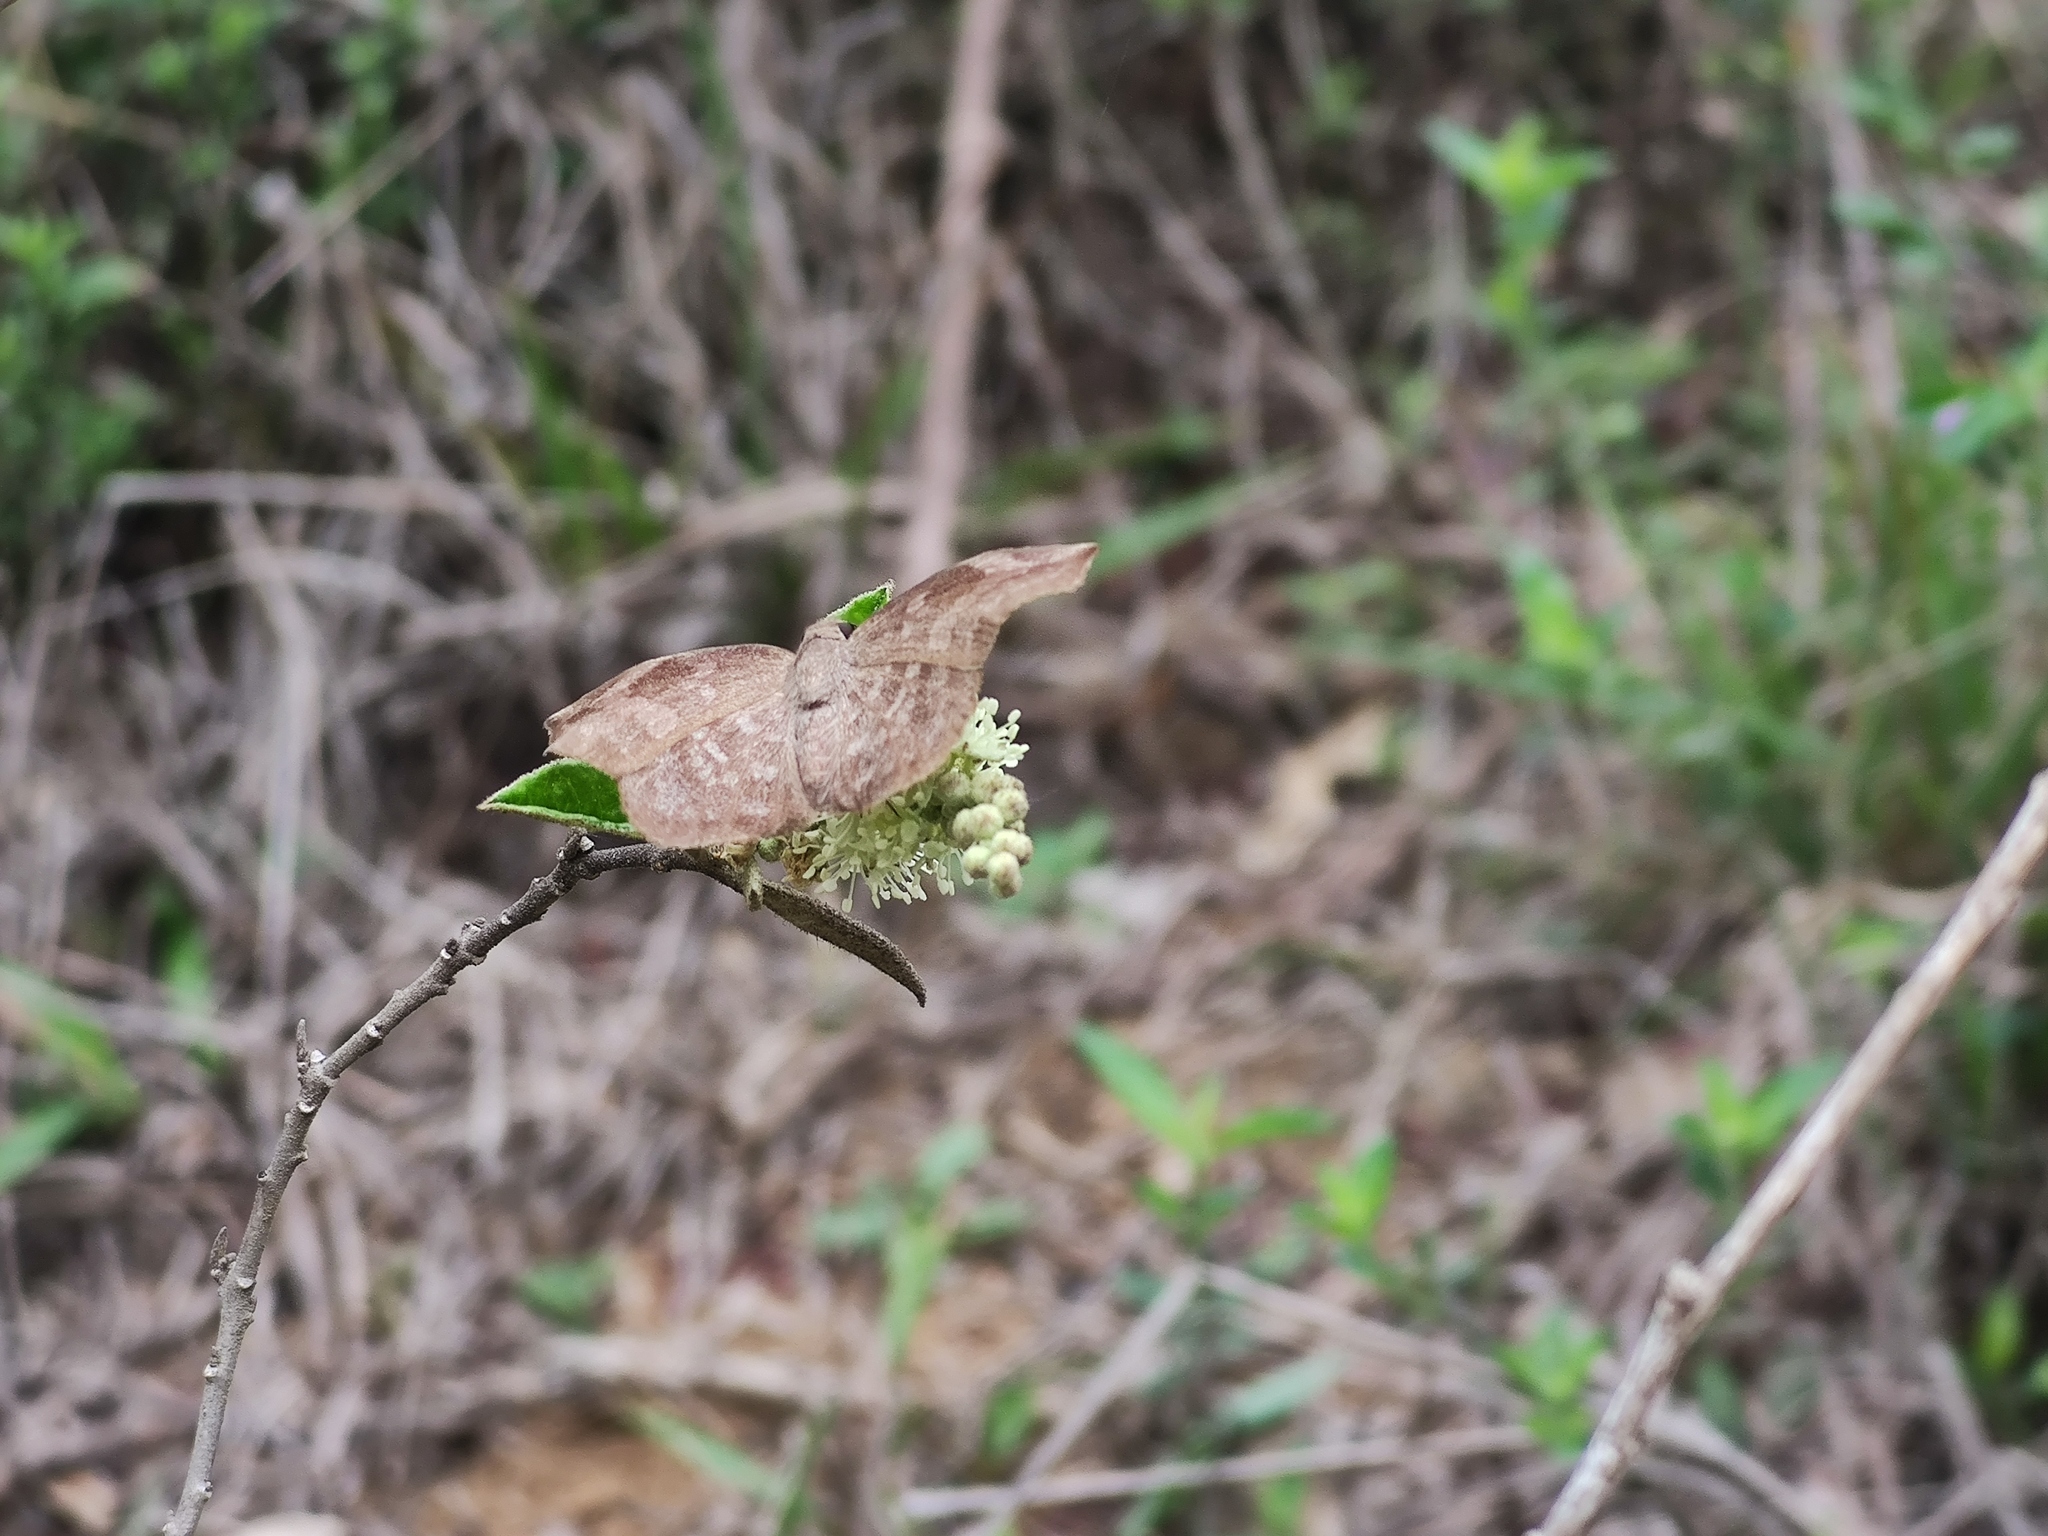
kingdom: Animalia
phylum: Arthropoda
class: Insecta
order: Lepidoptera
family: Hesperiidae
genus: Achlyodes
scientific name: Achlyodes thraso
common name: Sickle-winged skipper
